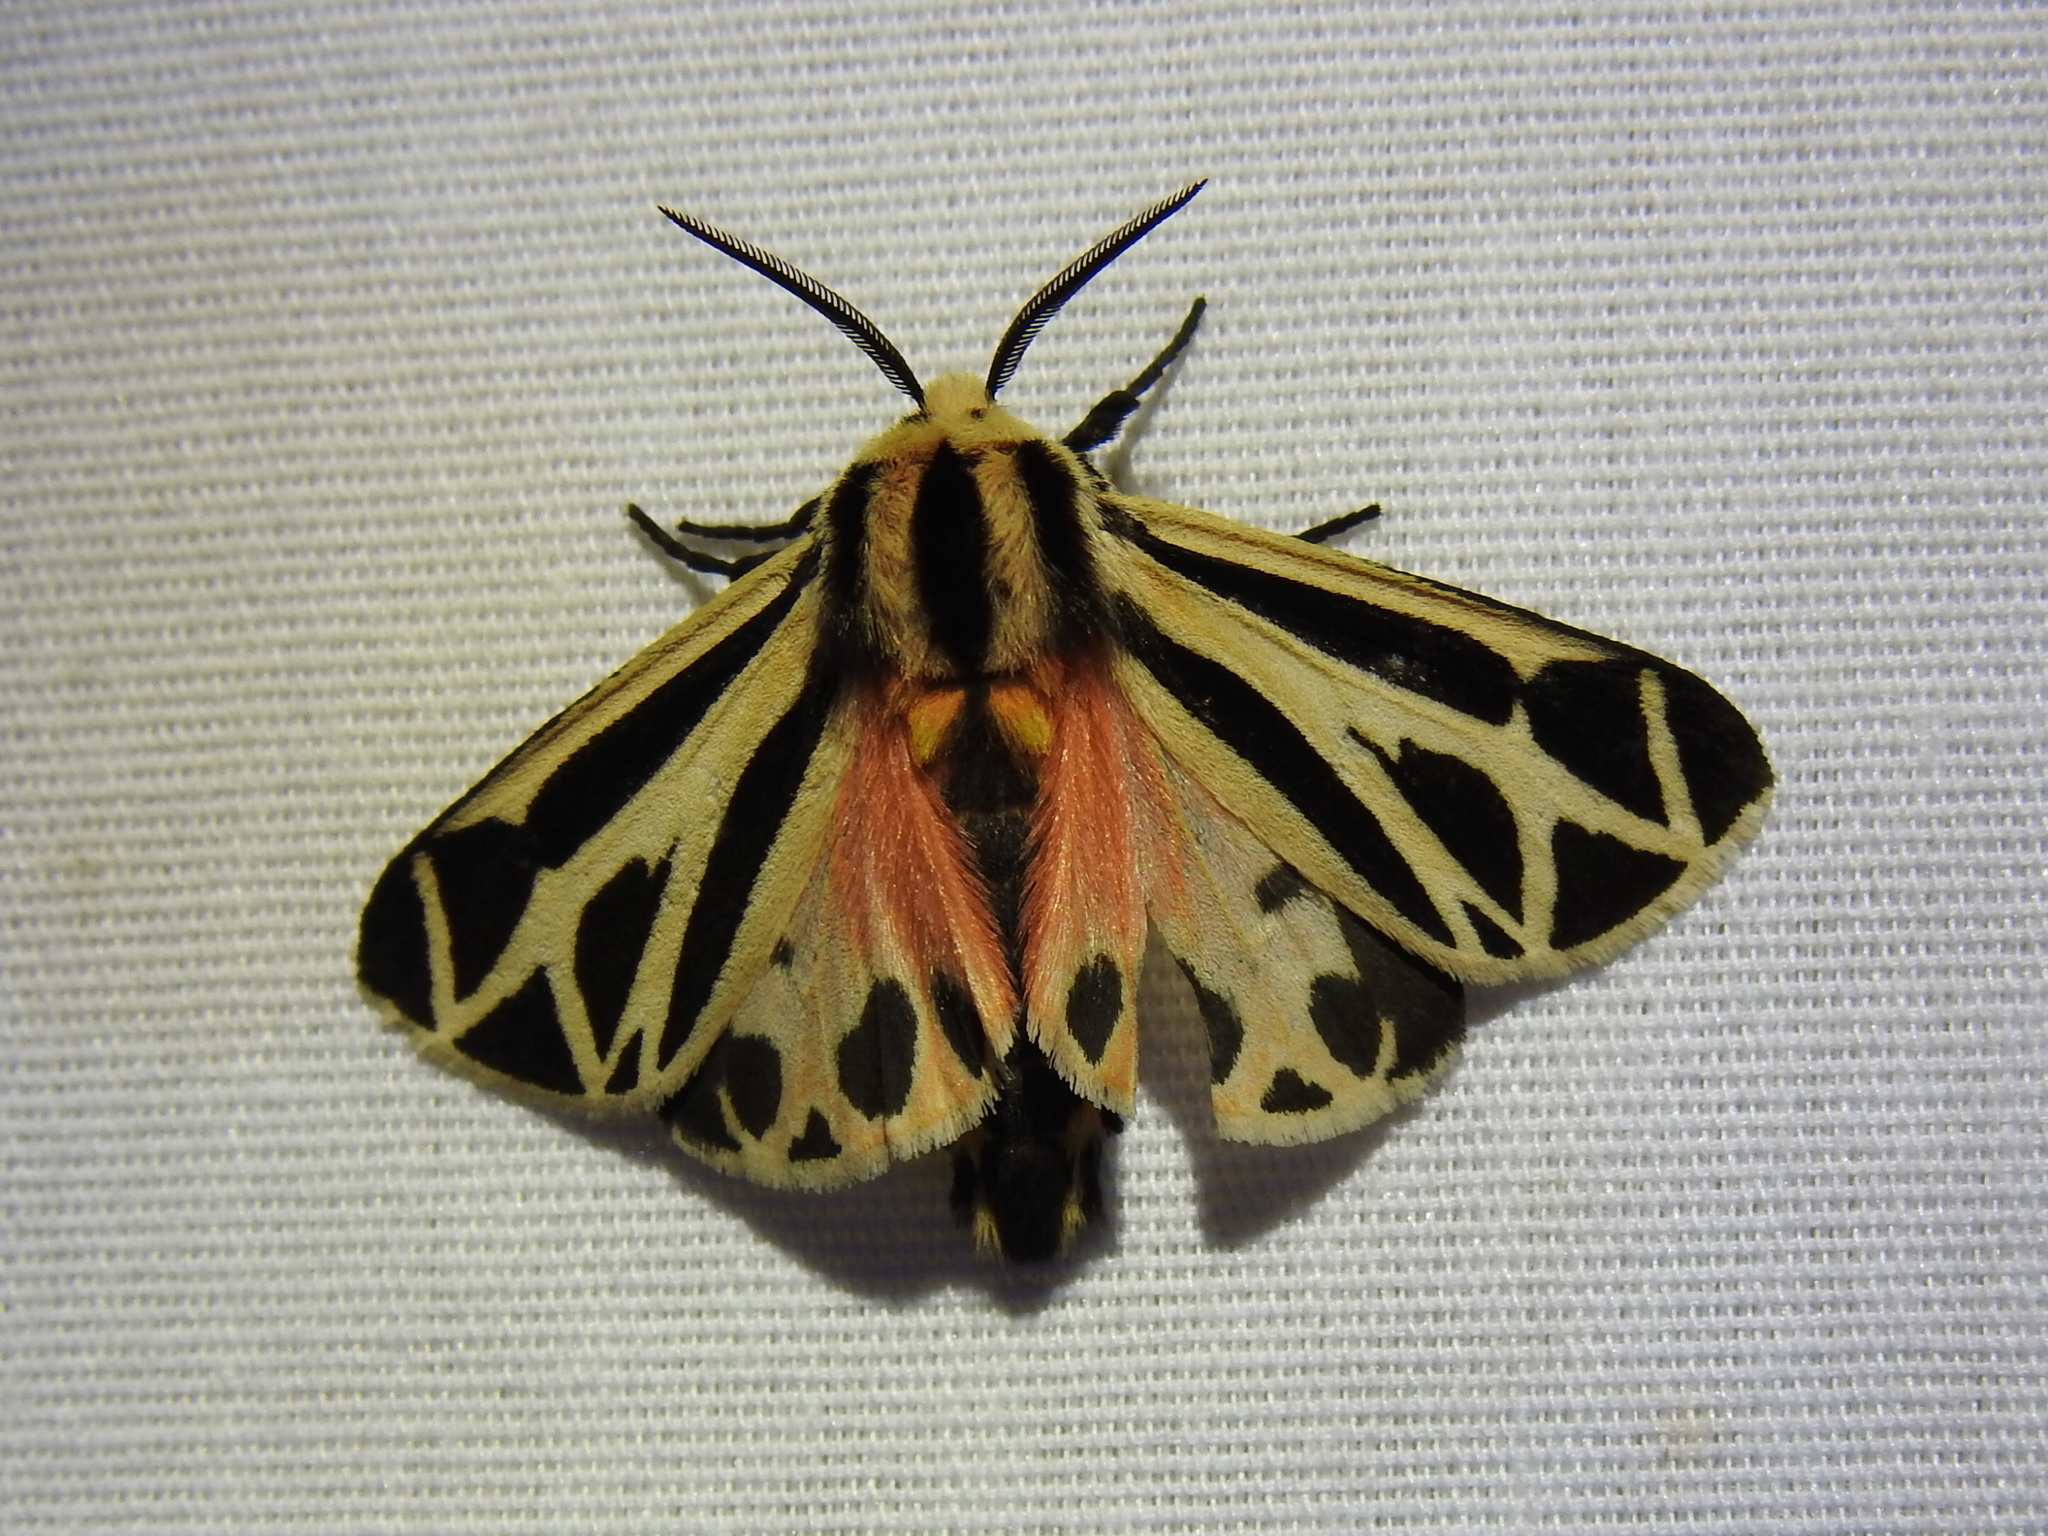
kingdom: Animalia
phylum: Arthropoda
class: Insecta
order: Lepidoptera
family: Erebidae
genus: Apantesis
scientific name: Apantesis phalerata
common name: Harnessed tiger moth
